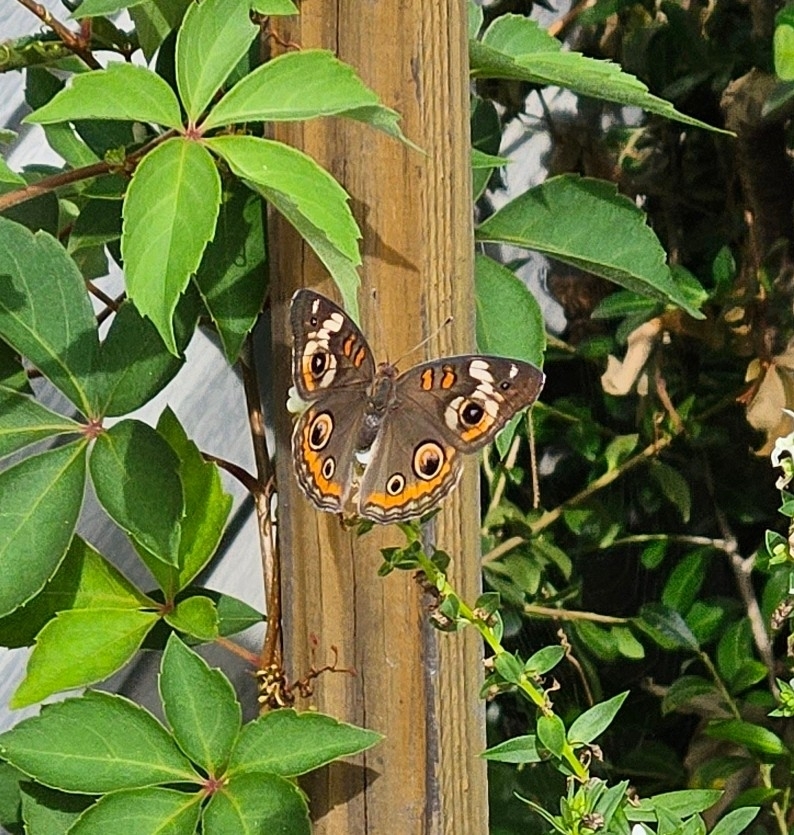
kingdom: Animalia
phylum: Arthropoda
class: Insecta
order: Lepidoptera
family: Nymphalidae
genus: Junonia
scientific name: Junonia coenia
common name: Common buckeye
